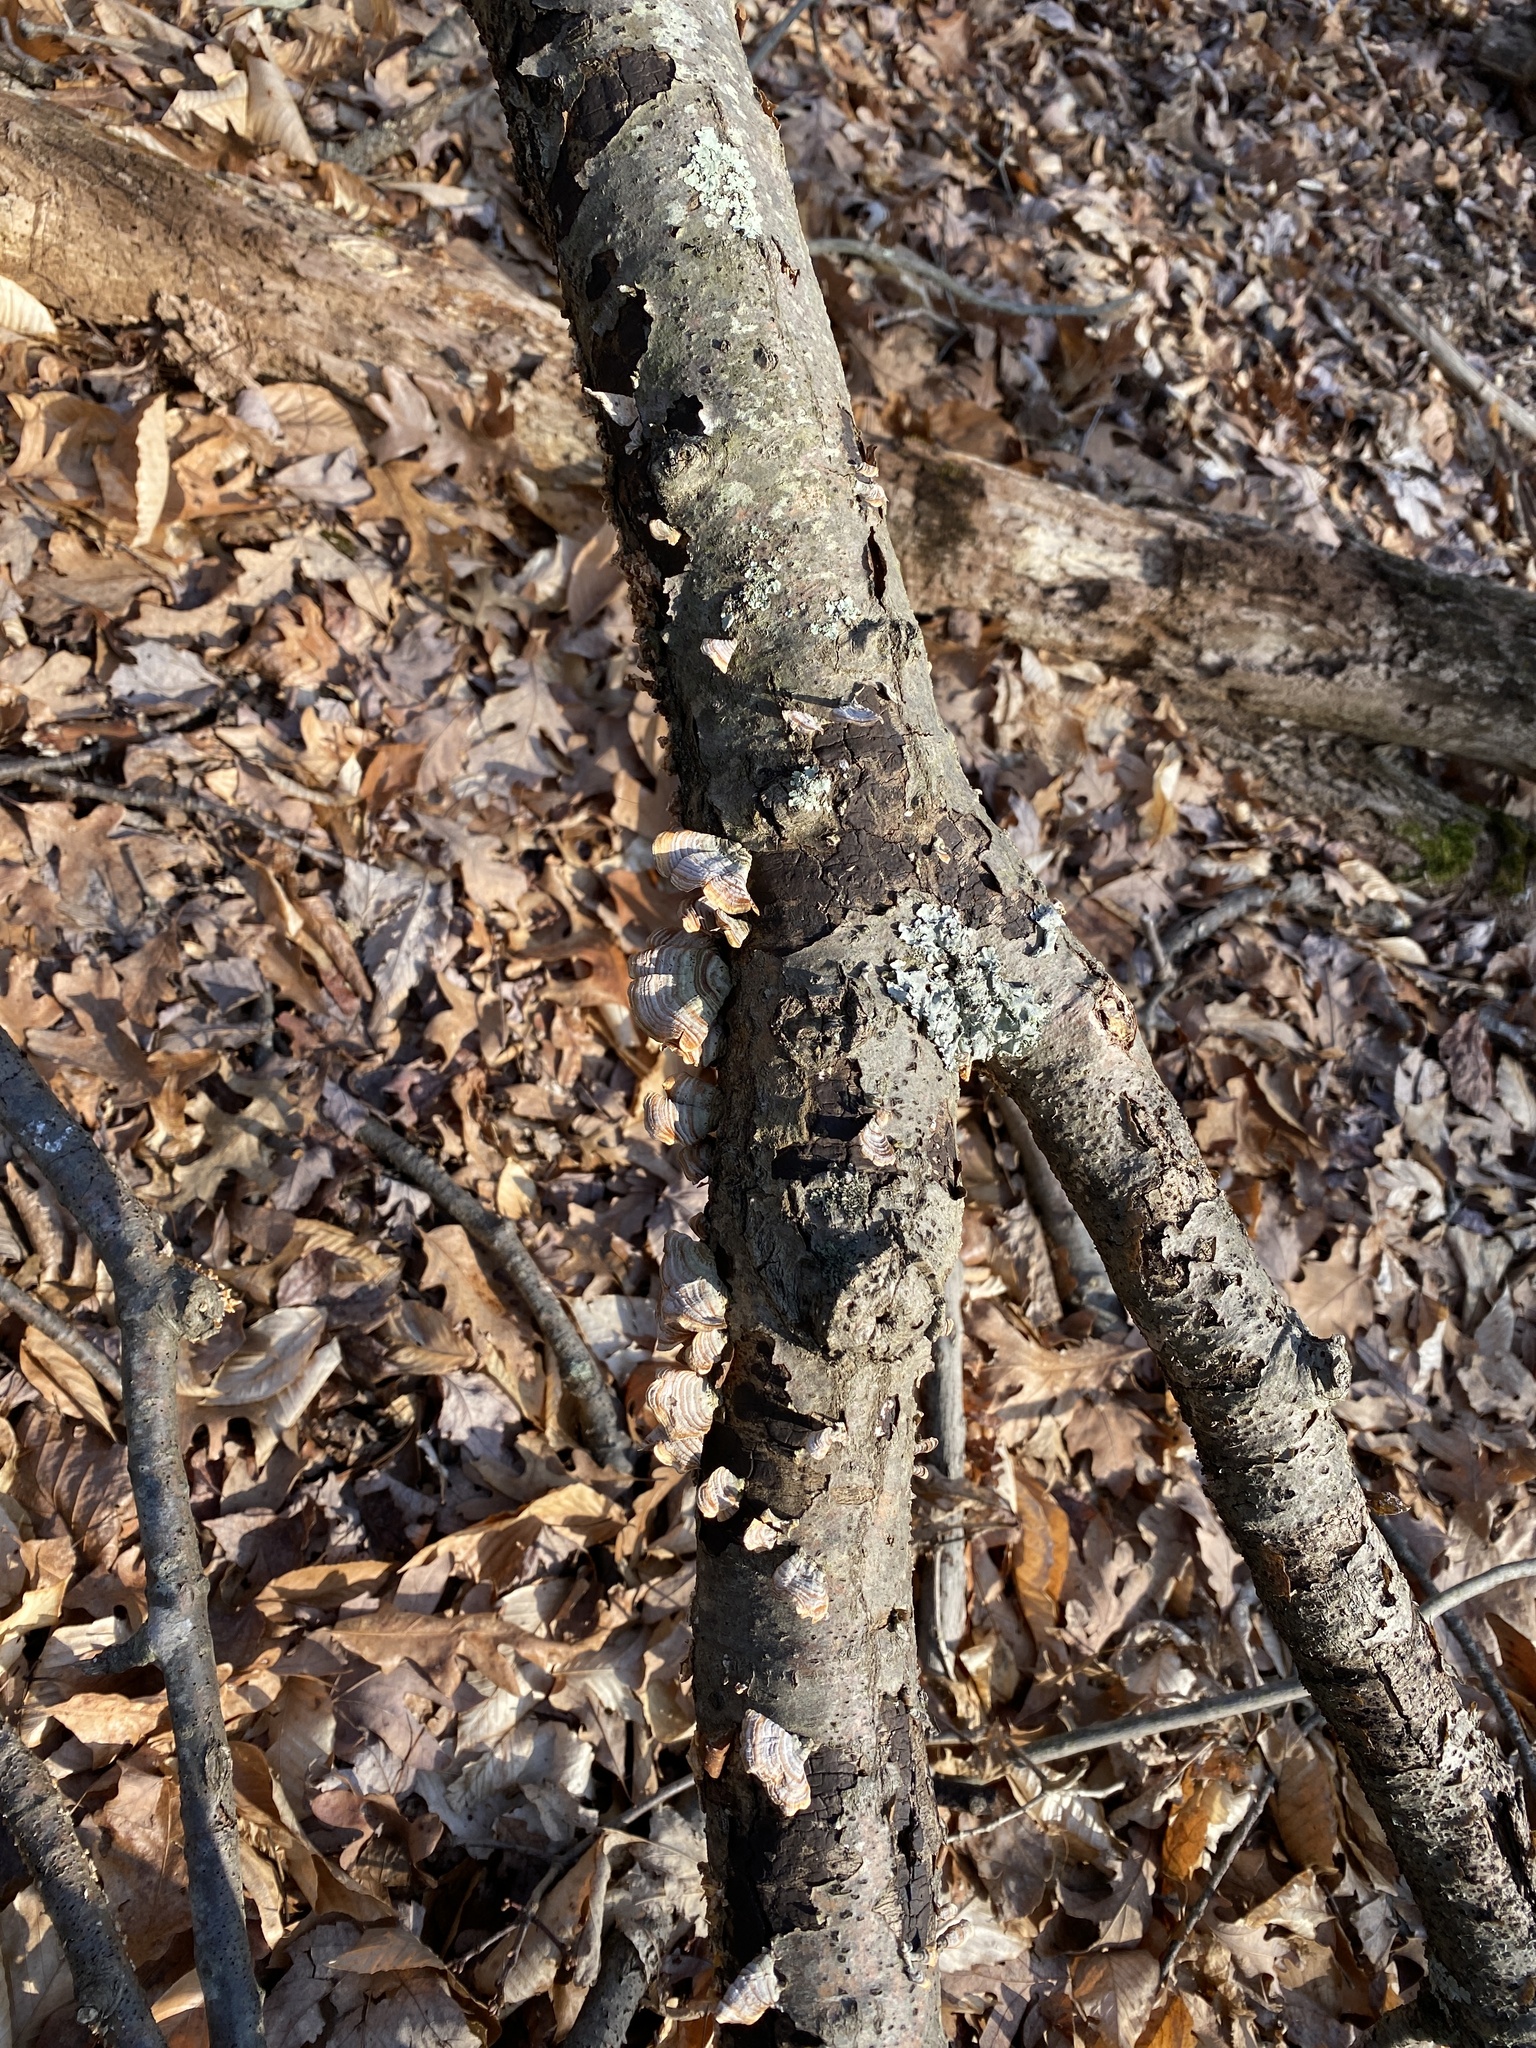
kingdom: Fungi
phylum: Basidiomycota
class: Agaricomycetes
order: Russulales
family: Stereaceae
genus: Stereum
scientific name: Stereum lobatum
